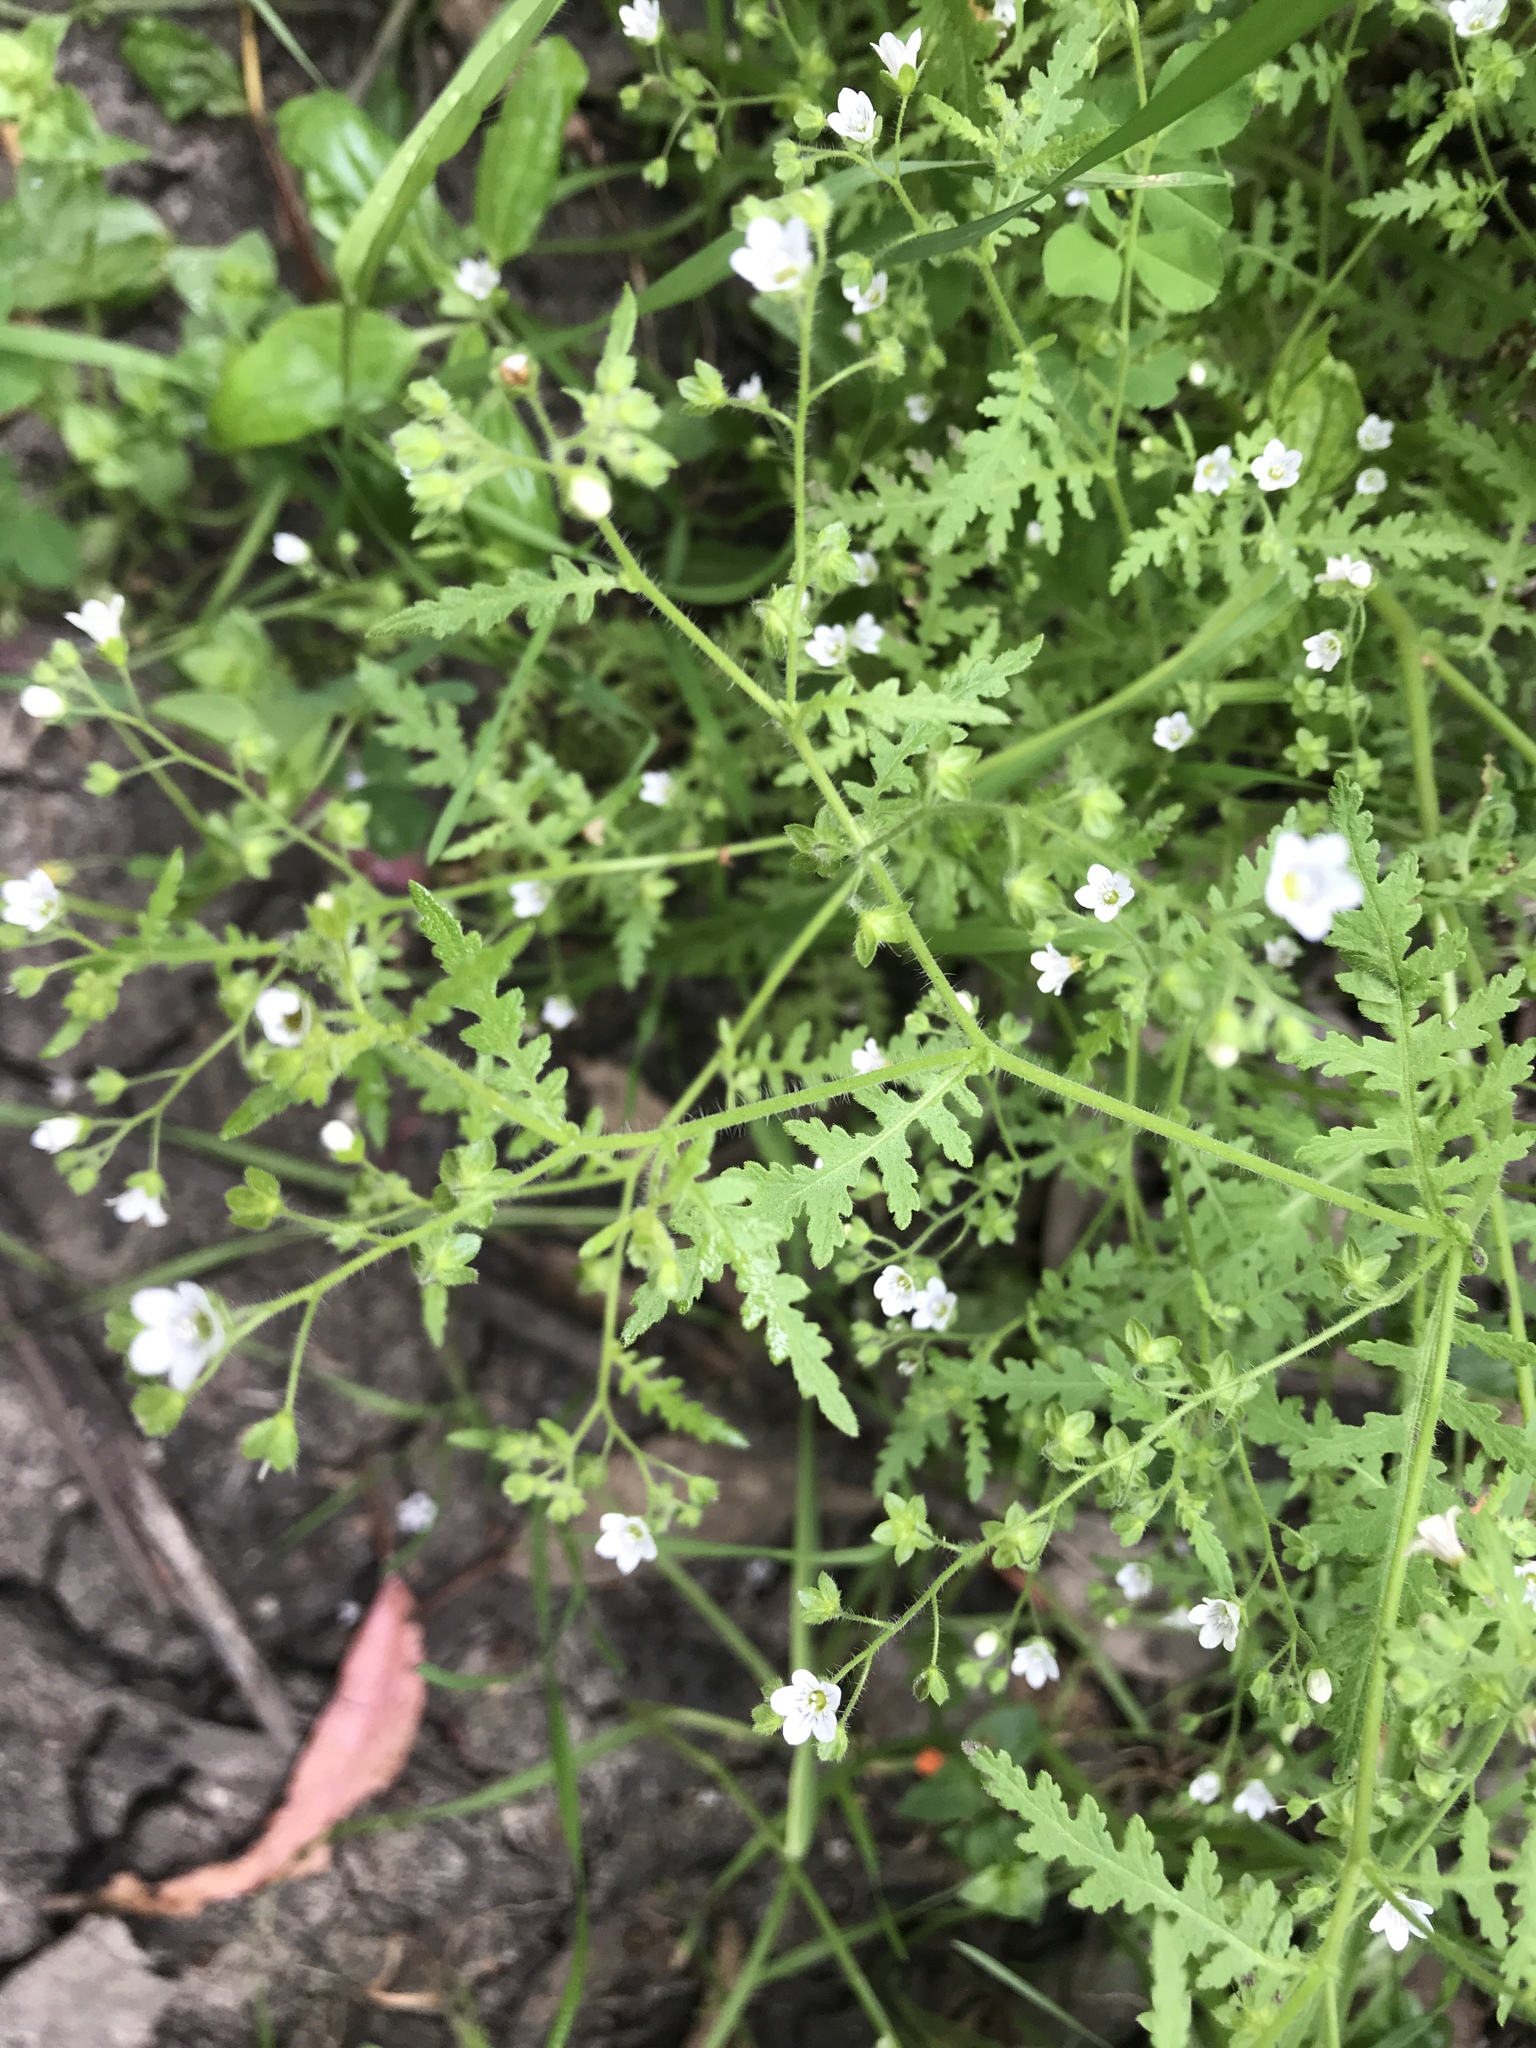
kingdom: Plantae
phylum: Tracheophyta
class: Magnoliopsida
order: Boraginales
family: Hydrophyllaceae
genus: Eucrypta
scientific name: Eucrypta chrysanthemifolia
